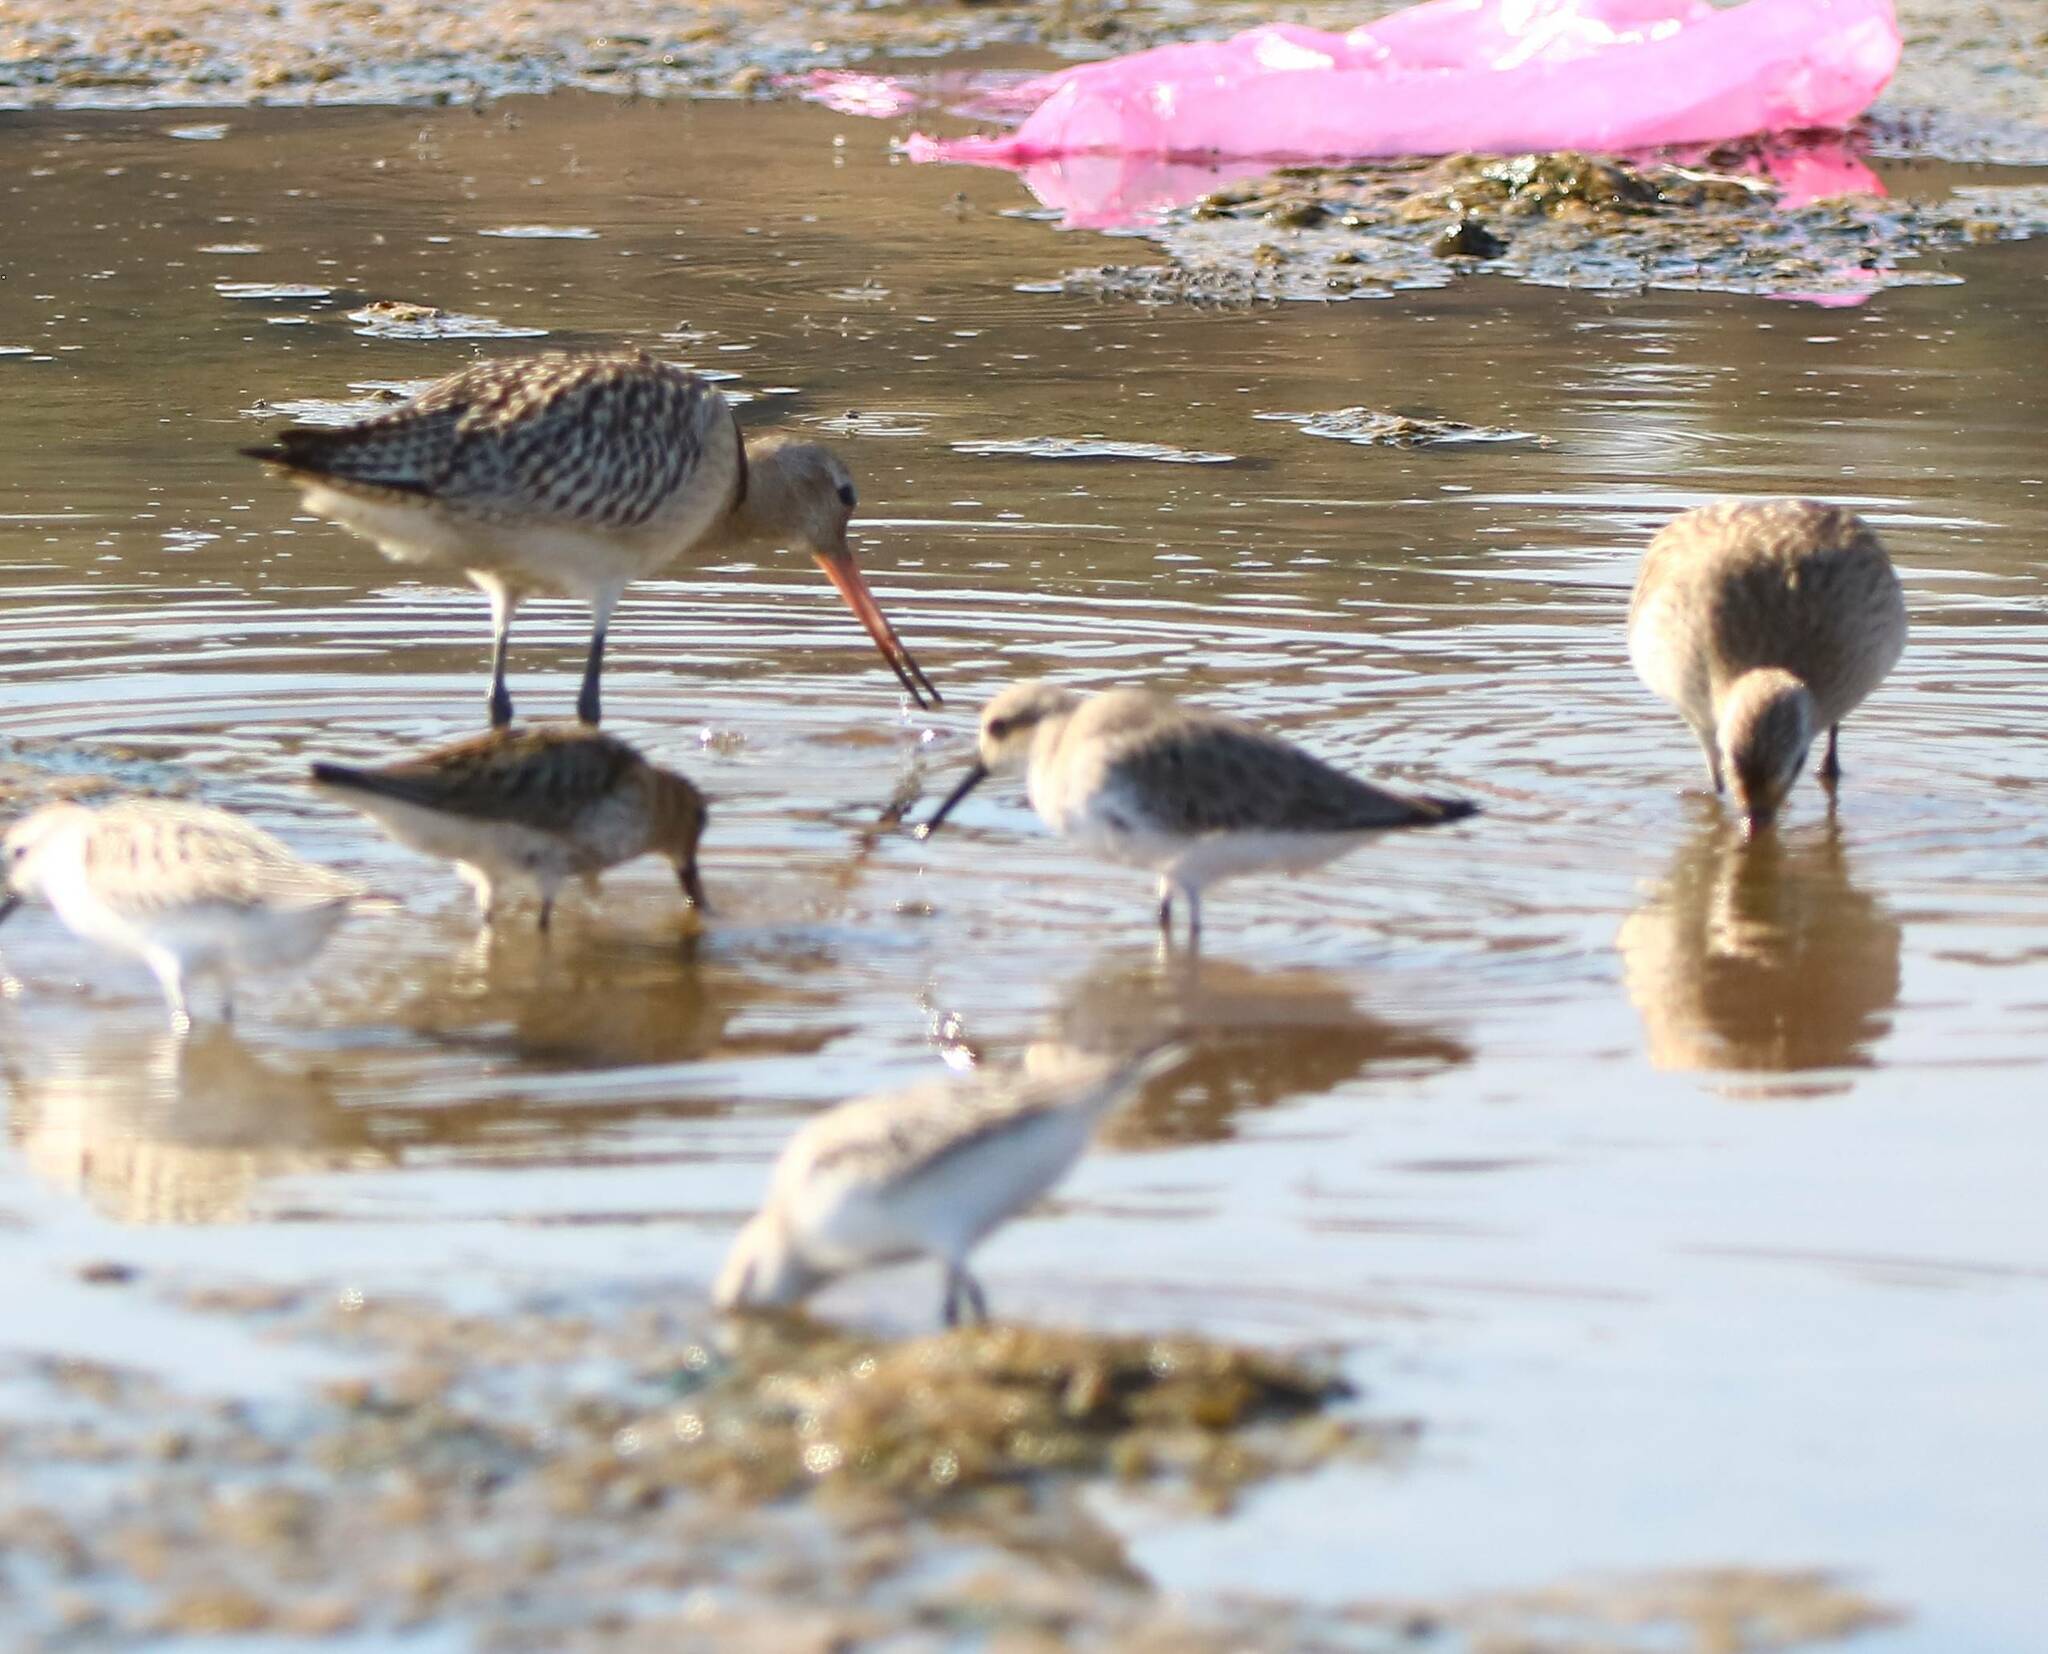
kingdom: Animalia
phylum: Chordata
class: Aves
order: Charadriiformes
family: Scolopacidae
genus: Calidris
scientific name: Calidris ferruginea
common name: Curlew sandpiper
